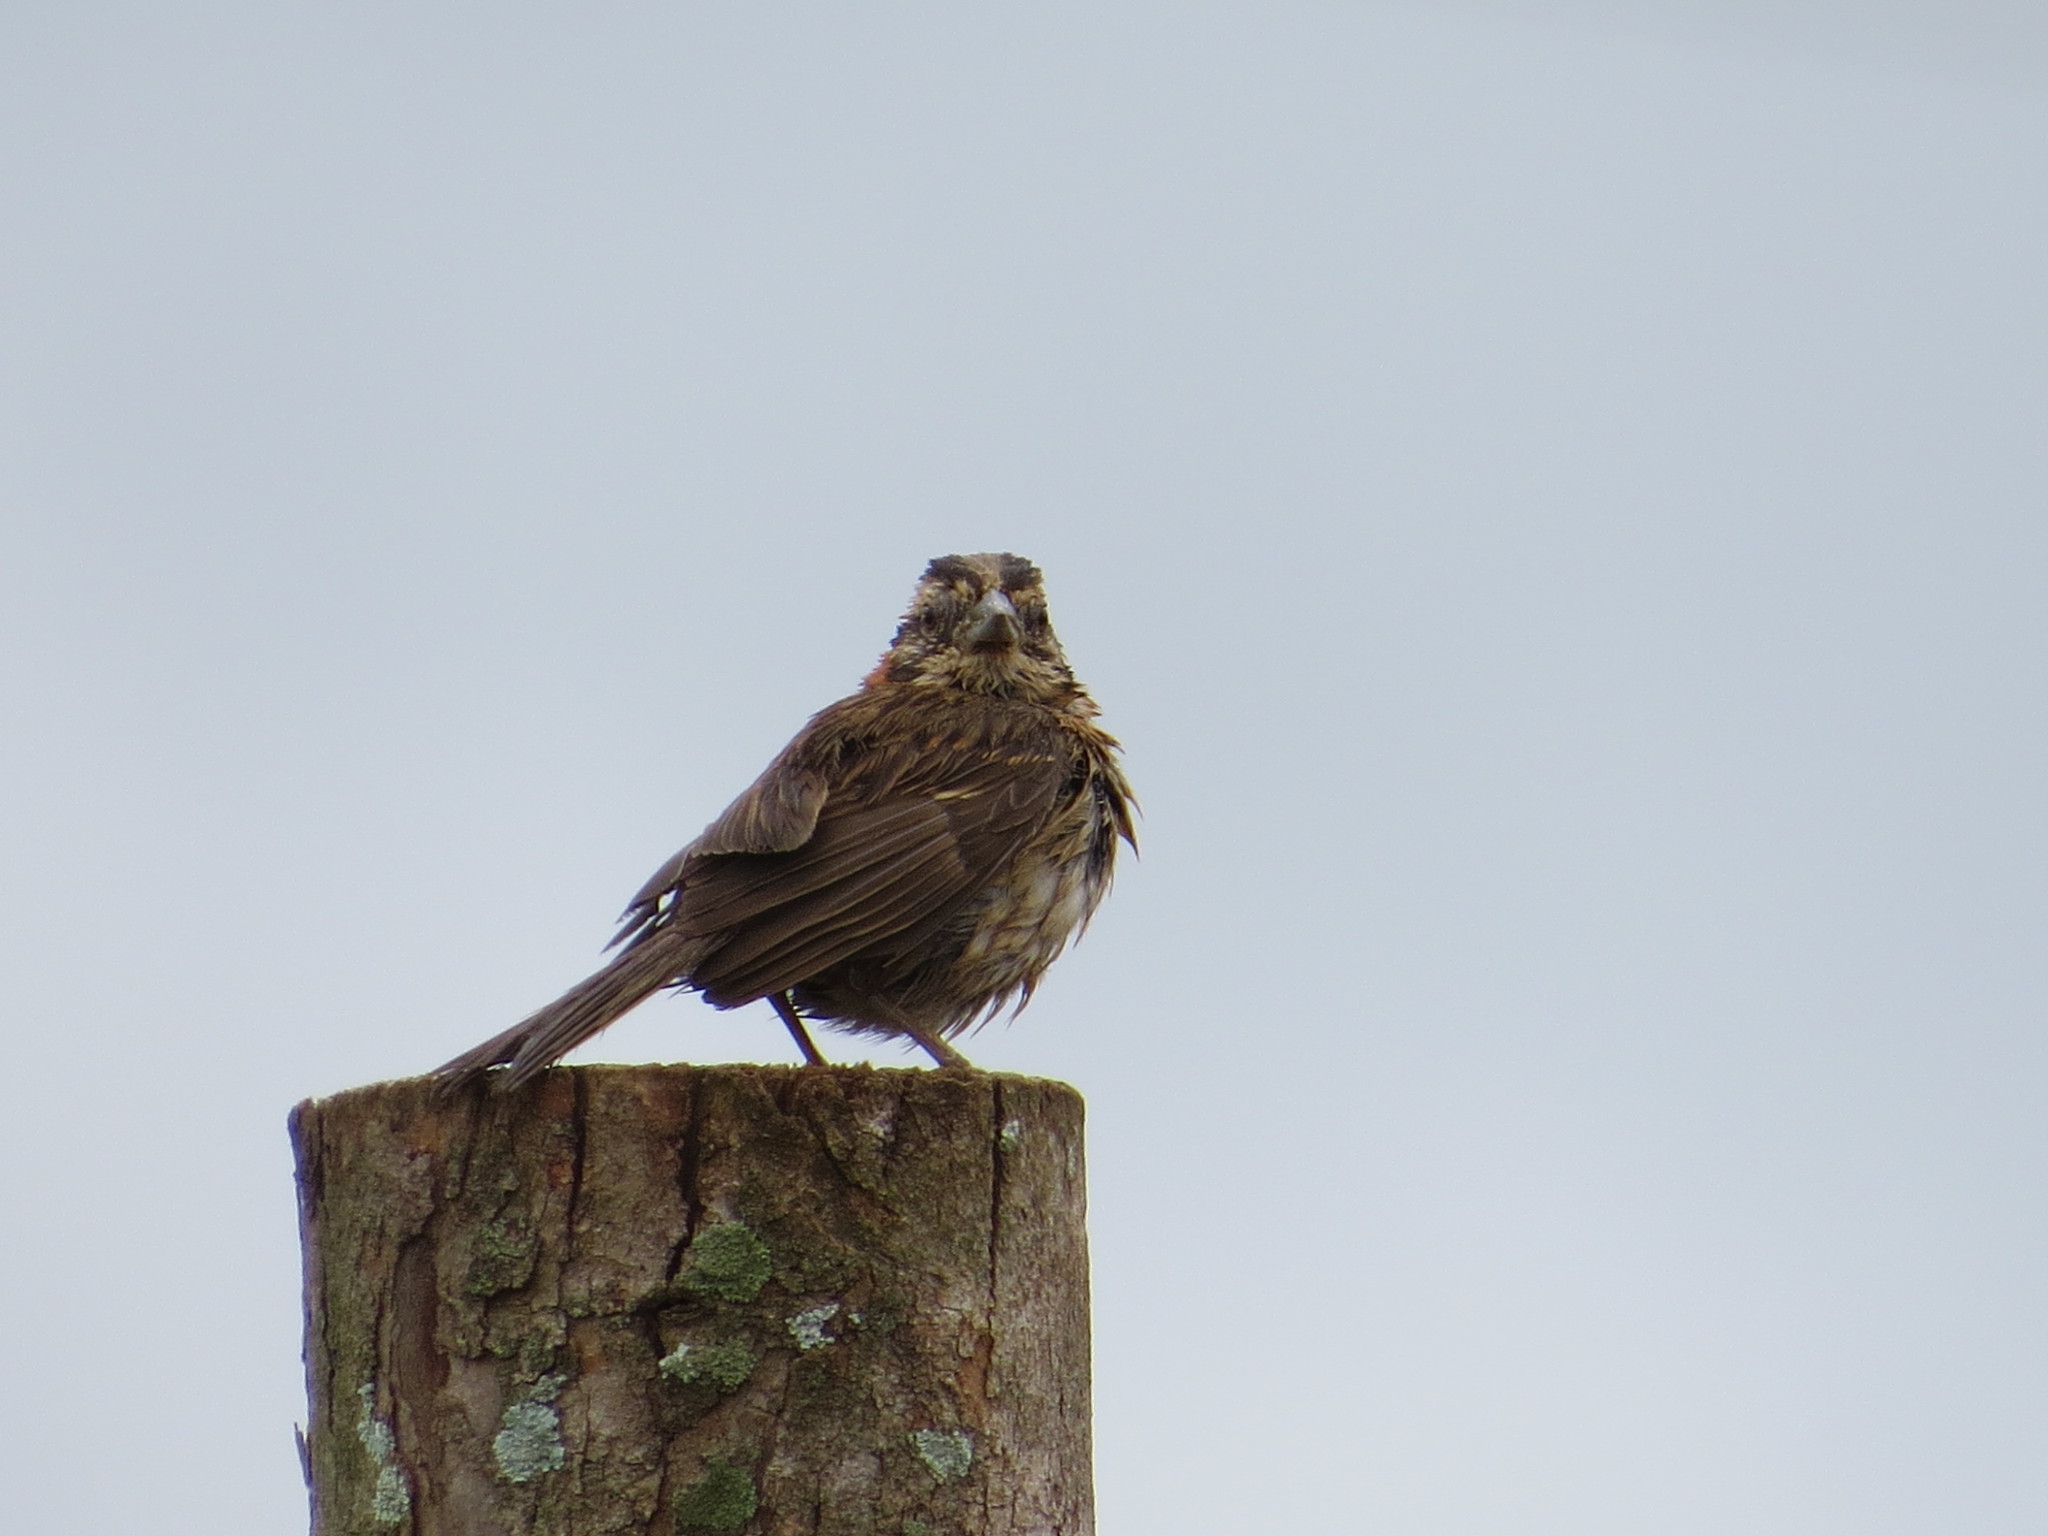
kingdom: Animalia
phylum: Chordata
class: Aves
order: Passeriformes
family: Passerellidae
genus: Zonotrichia
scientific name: Zonotrichia capensis
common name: Rufous-collared sparrow
